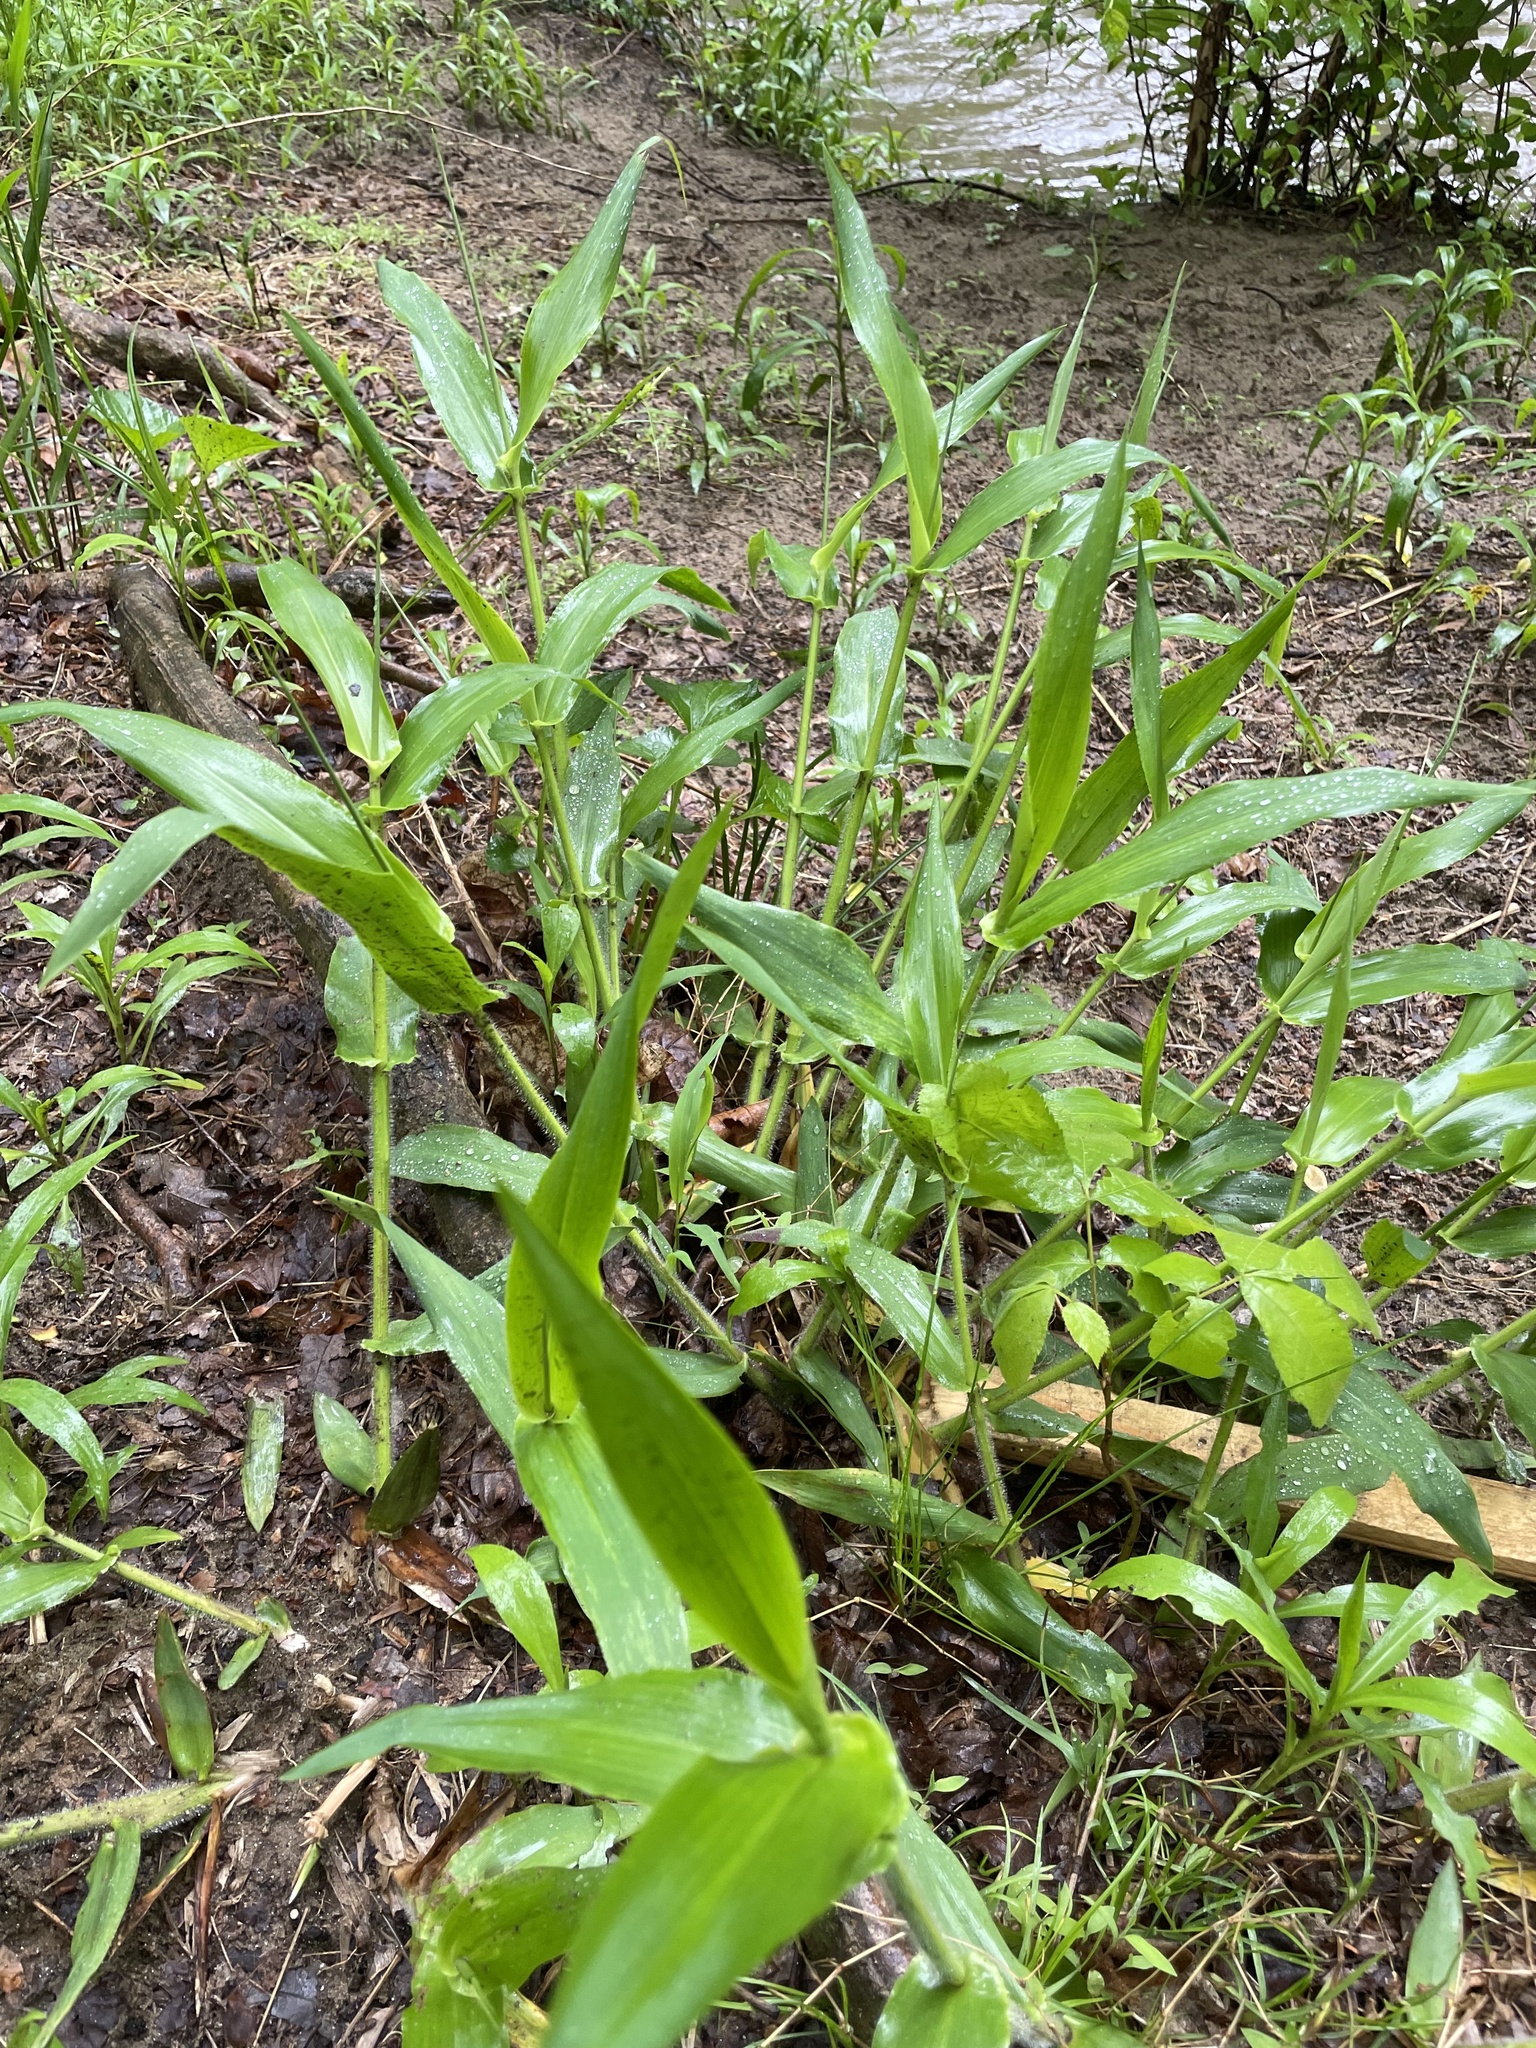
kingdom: Plantae
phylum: Tracheophyta
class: Liliopsida
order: Poales
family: Poaceae
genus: Dichanthelium
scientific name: Dichanthelium clandestinum
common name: Deer-tongue grass
